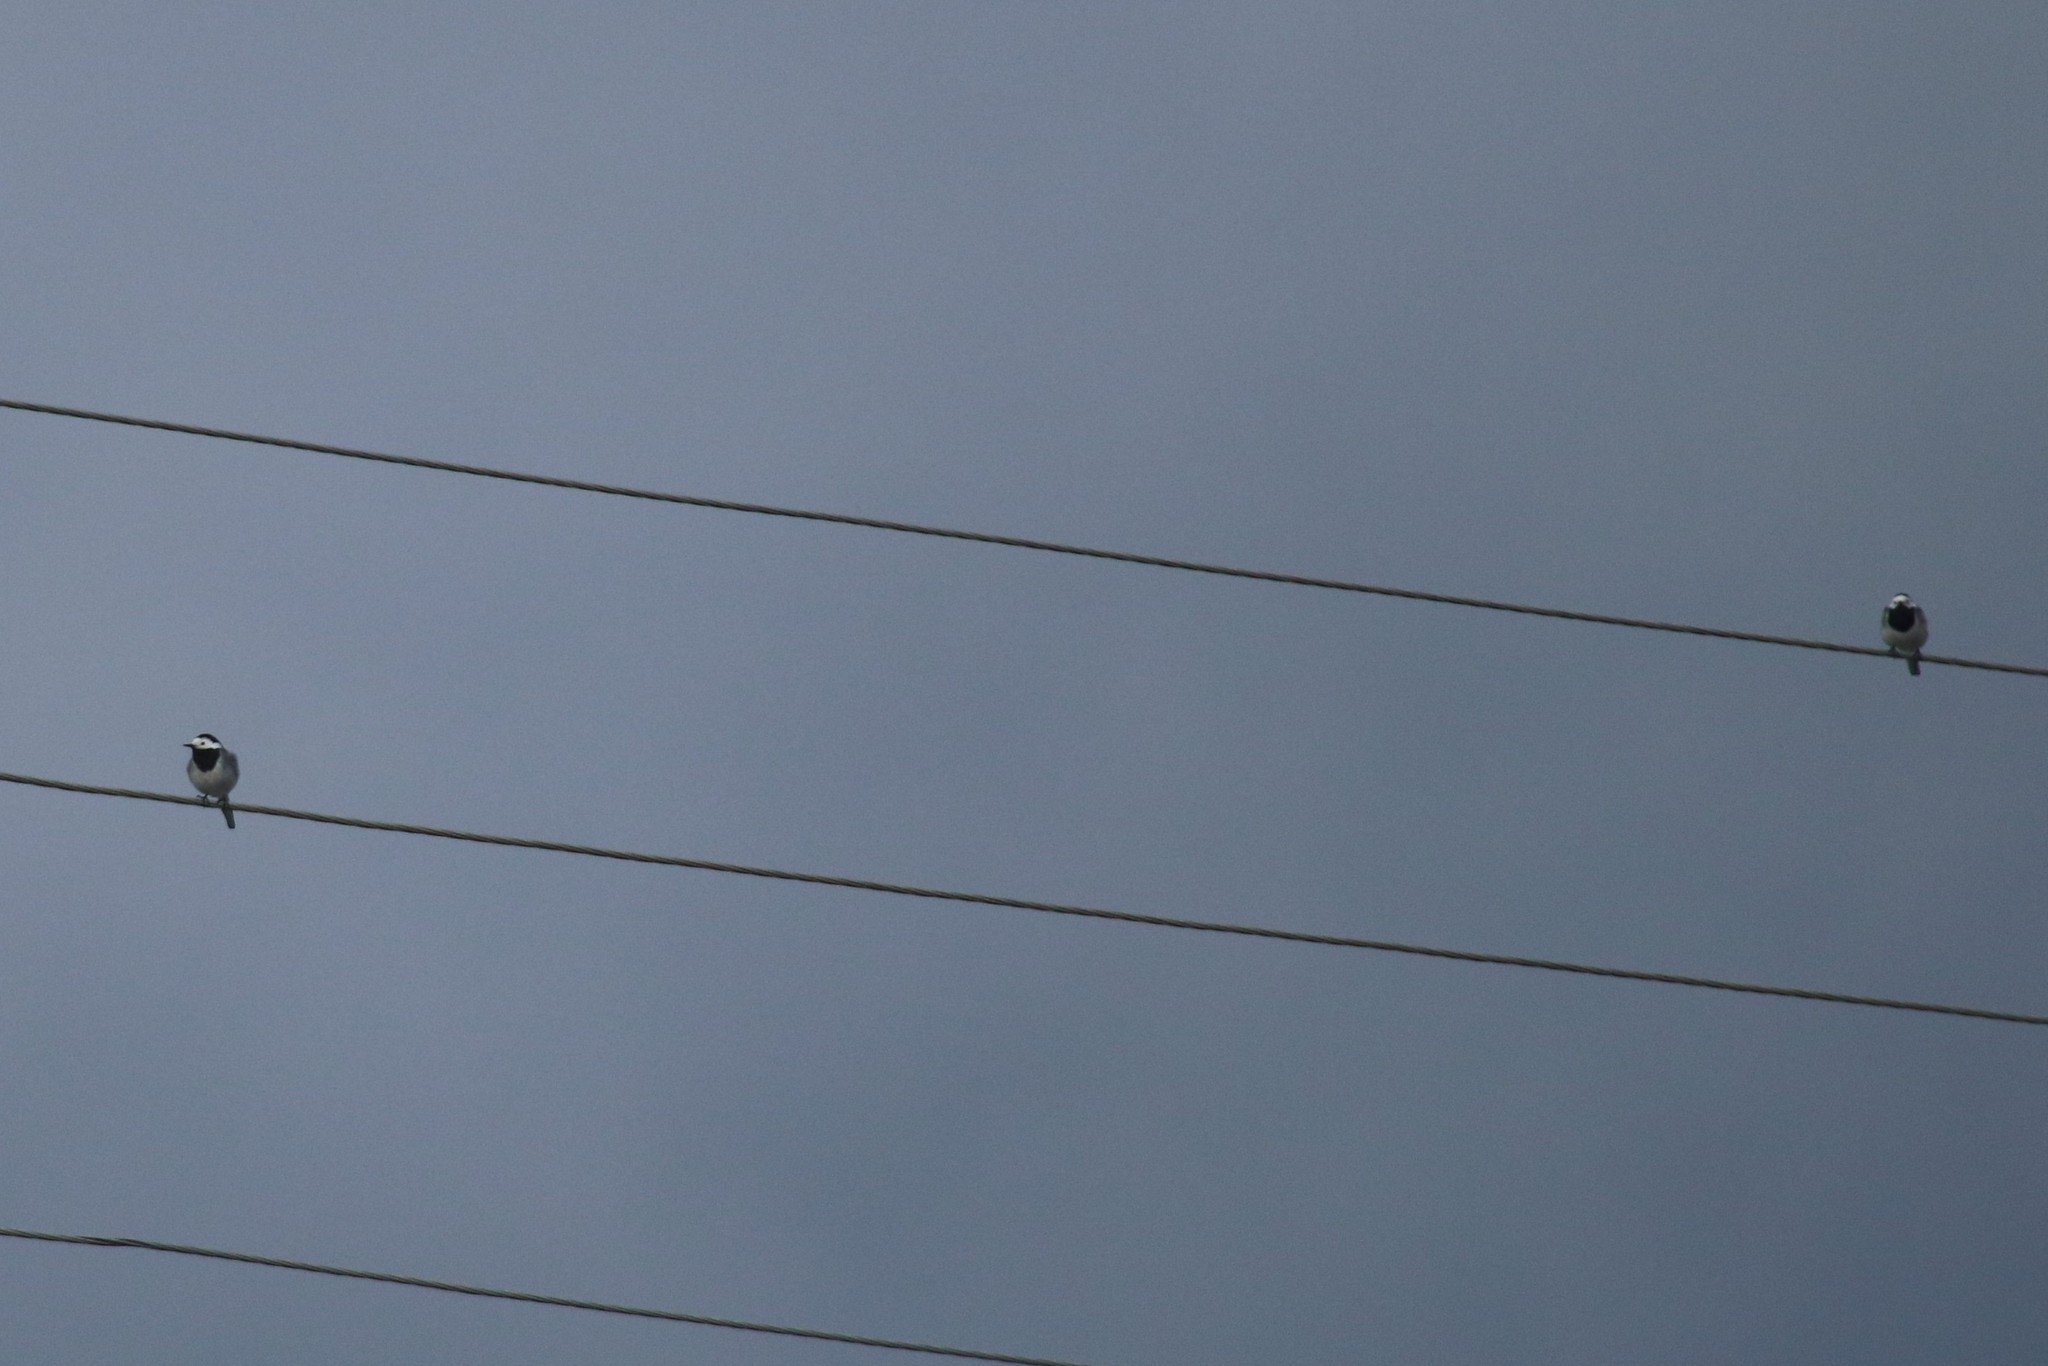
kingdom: Animalia
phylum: Chordata
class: Aves
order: Passeriformes
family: Motacillidae
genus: Motacilla
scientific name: Motacilla alba
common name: White wagtail
